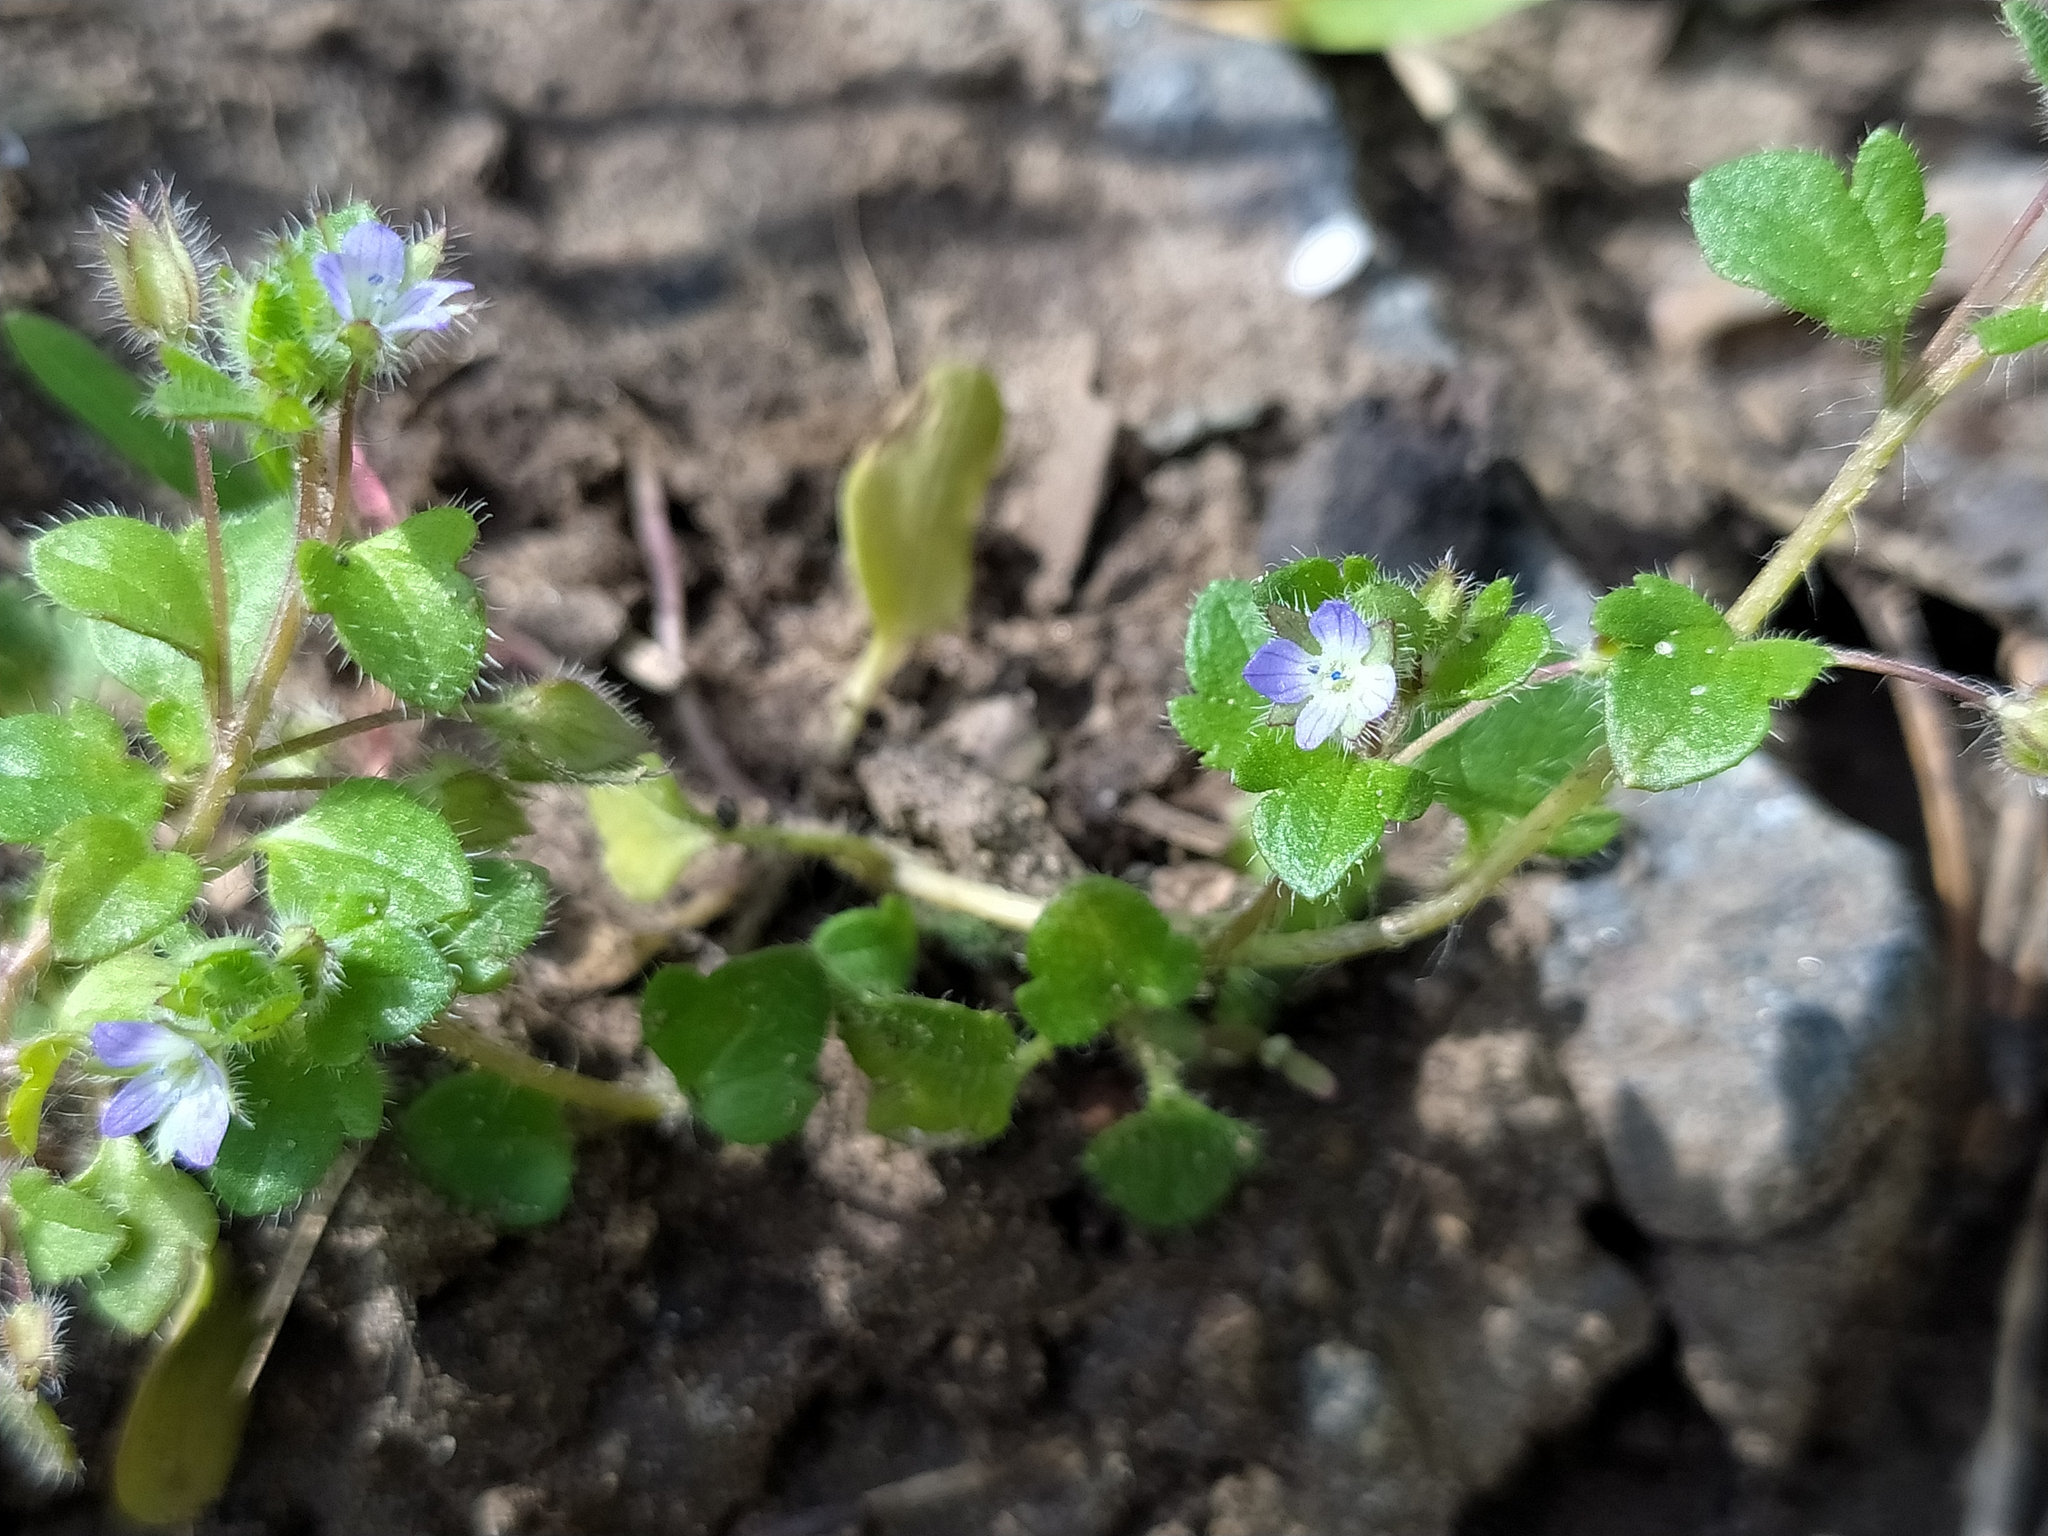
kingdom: Plantae
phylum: Tracheophyta
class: Magnoliopsida
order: Lamiales
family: Plantaginaceae
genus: Veronica
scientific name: Veronica hederifolia
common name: Ivy-leaved speedwell
